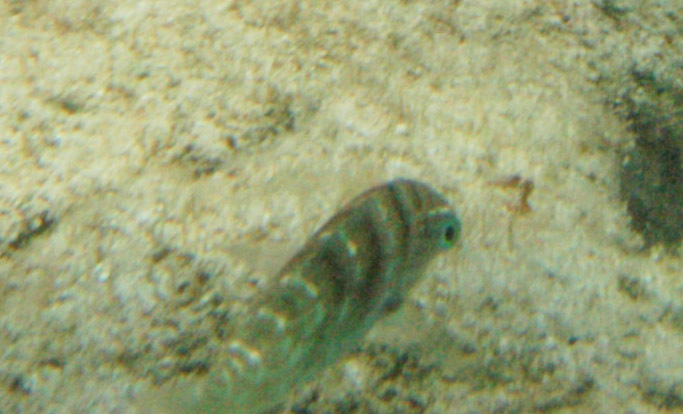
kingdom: Animalia
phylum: Chordata
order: Perciformes
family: Labridae
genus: Coris
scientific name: Coris batuensis
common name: Batu coris
